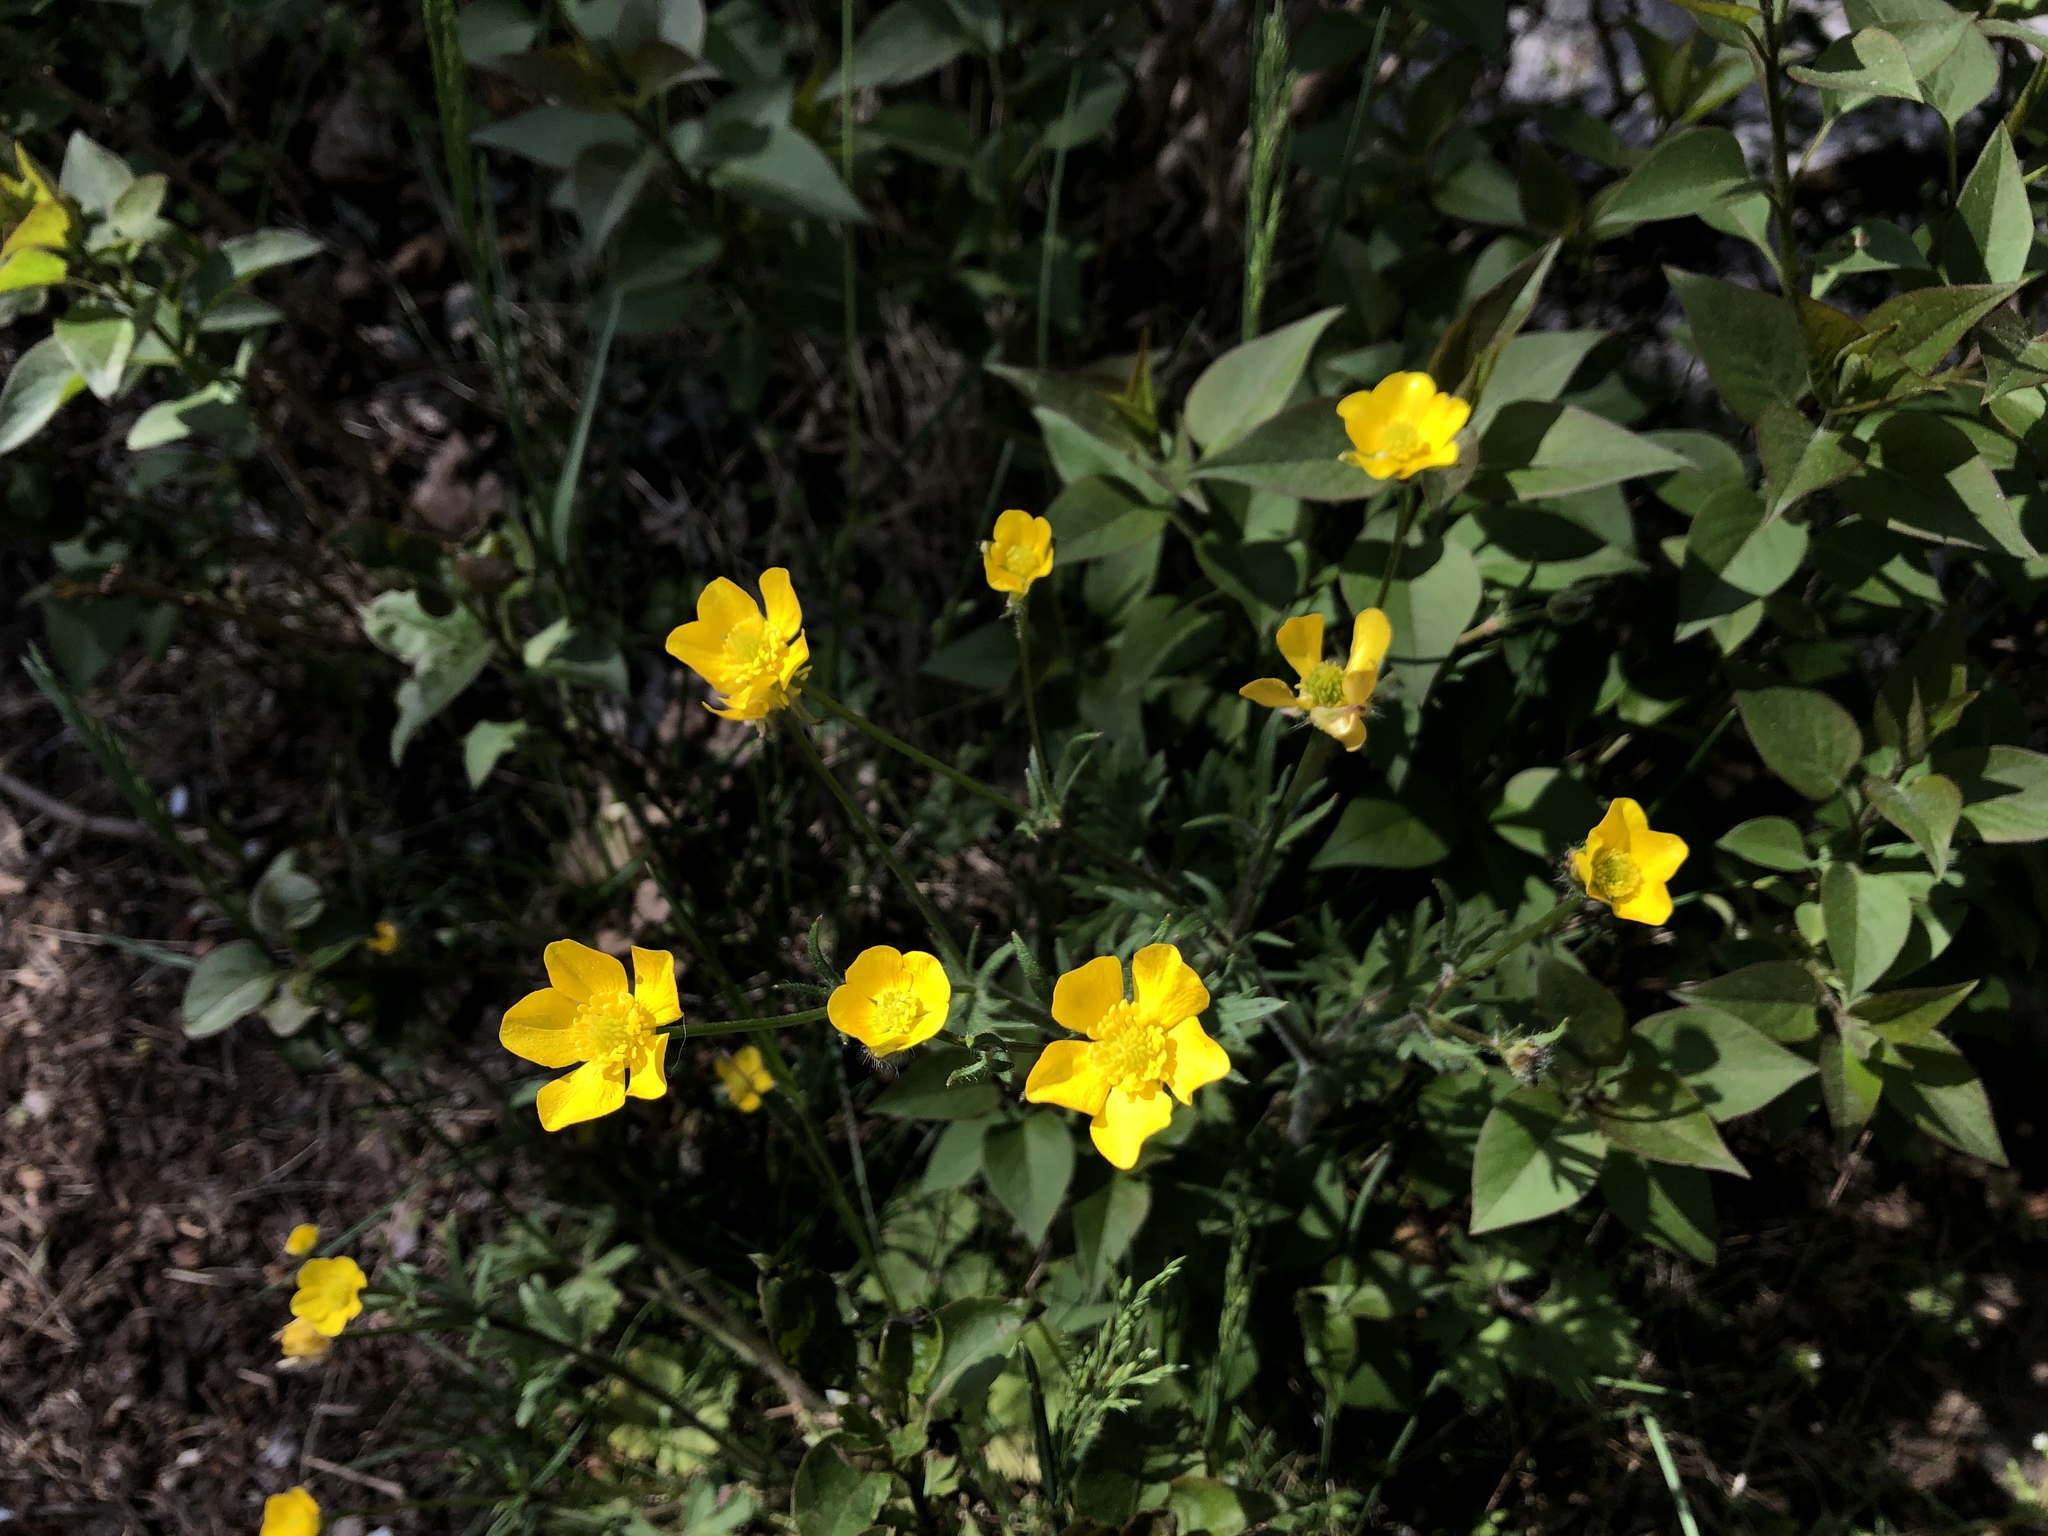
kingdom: Plantae
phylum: Tracheophyta
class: Magnoliopsida
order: Ranunculales
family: Ranunculaceae
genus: Ranunculus
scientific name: Ranunculus bulbosus
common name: Bulbous buttercup
